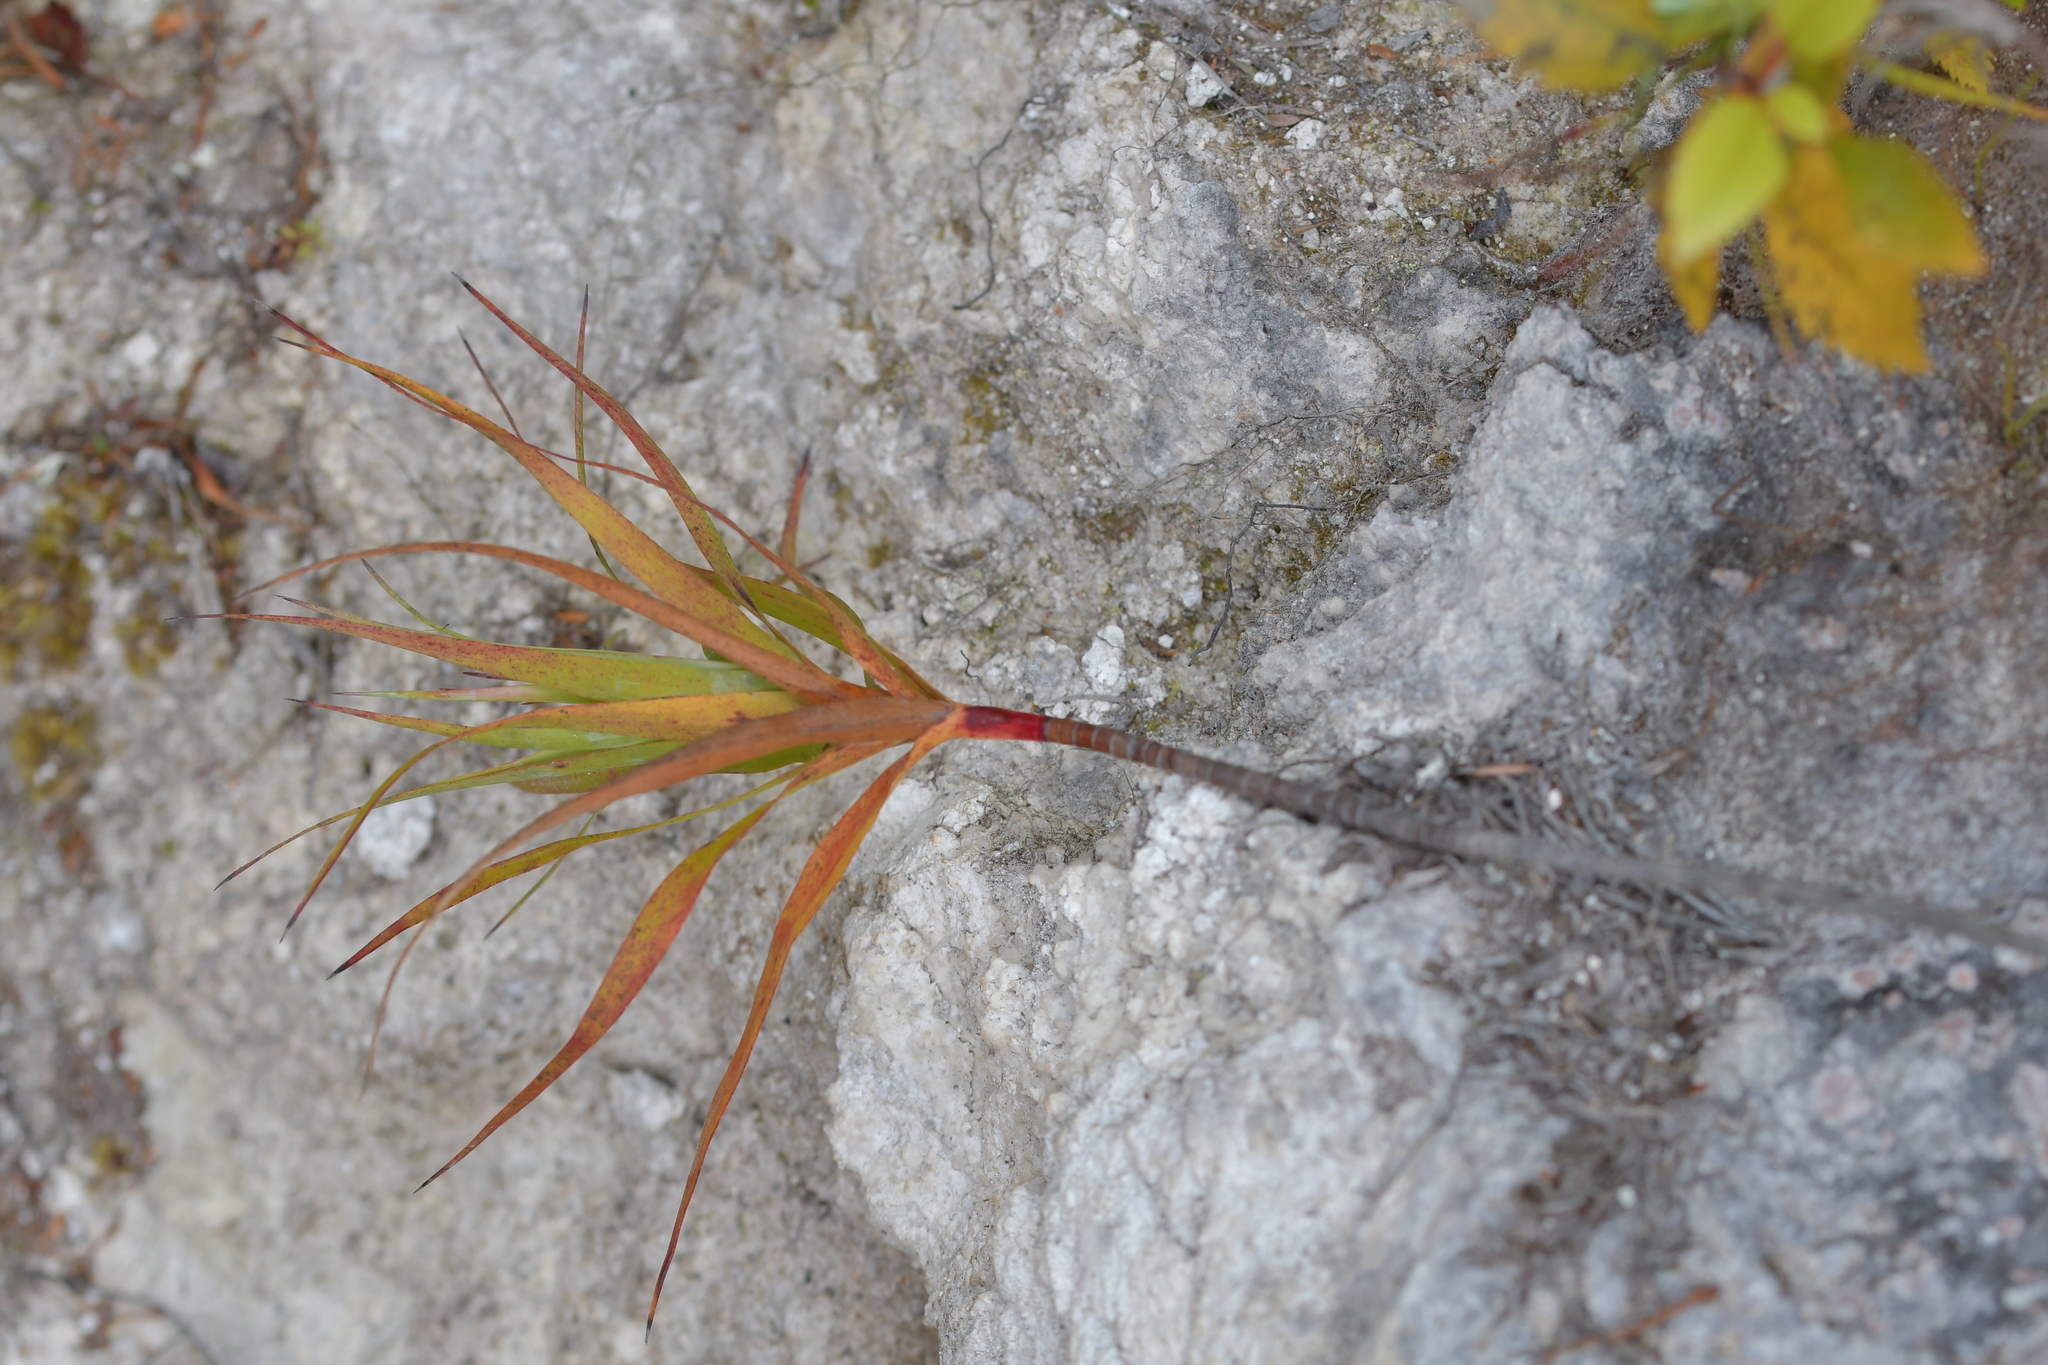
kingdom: Plantae
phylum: Tracheophyta
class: Magnoliopsida
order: Ericales
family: Ericaceae
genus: Dracophyllum
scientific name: Dracophyllum strictum
